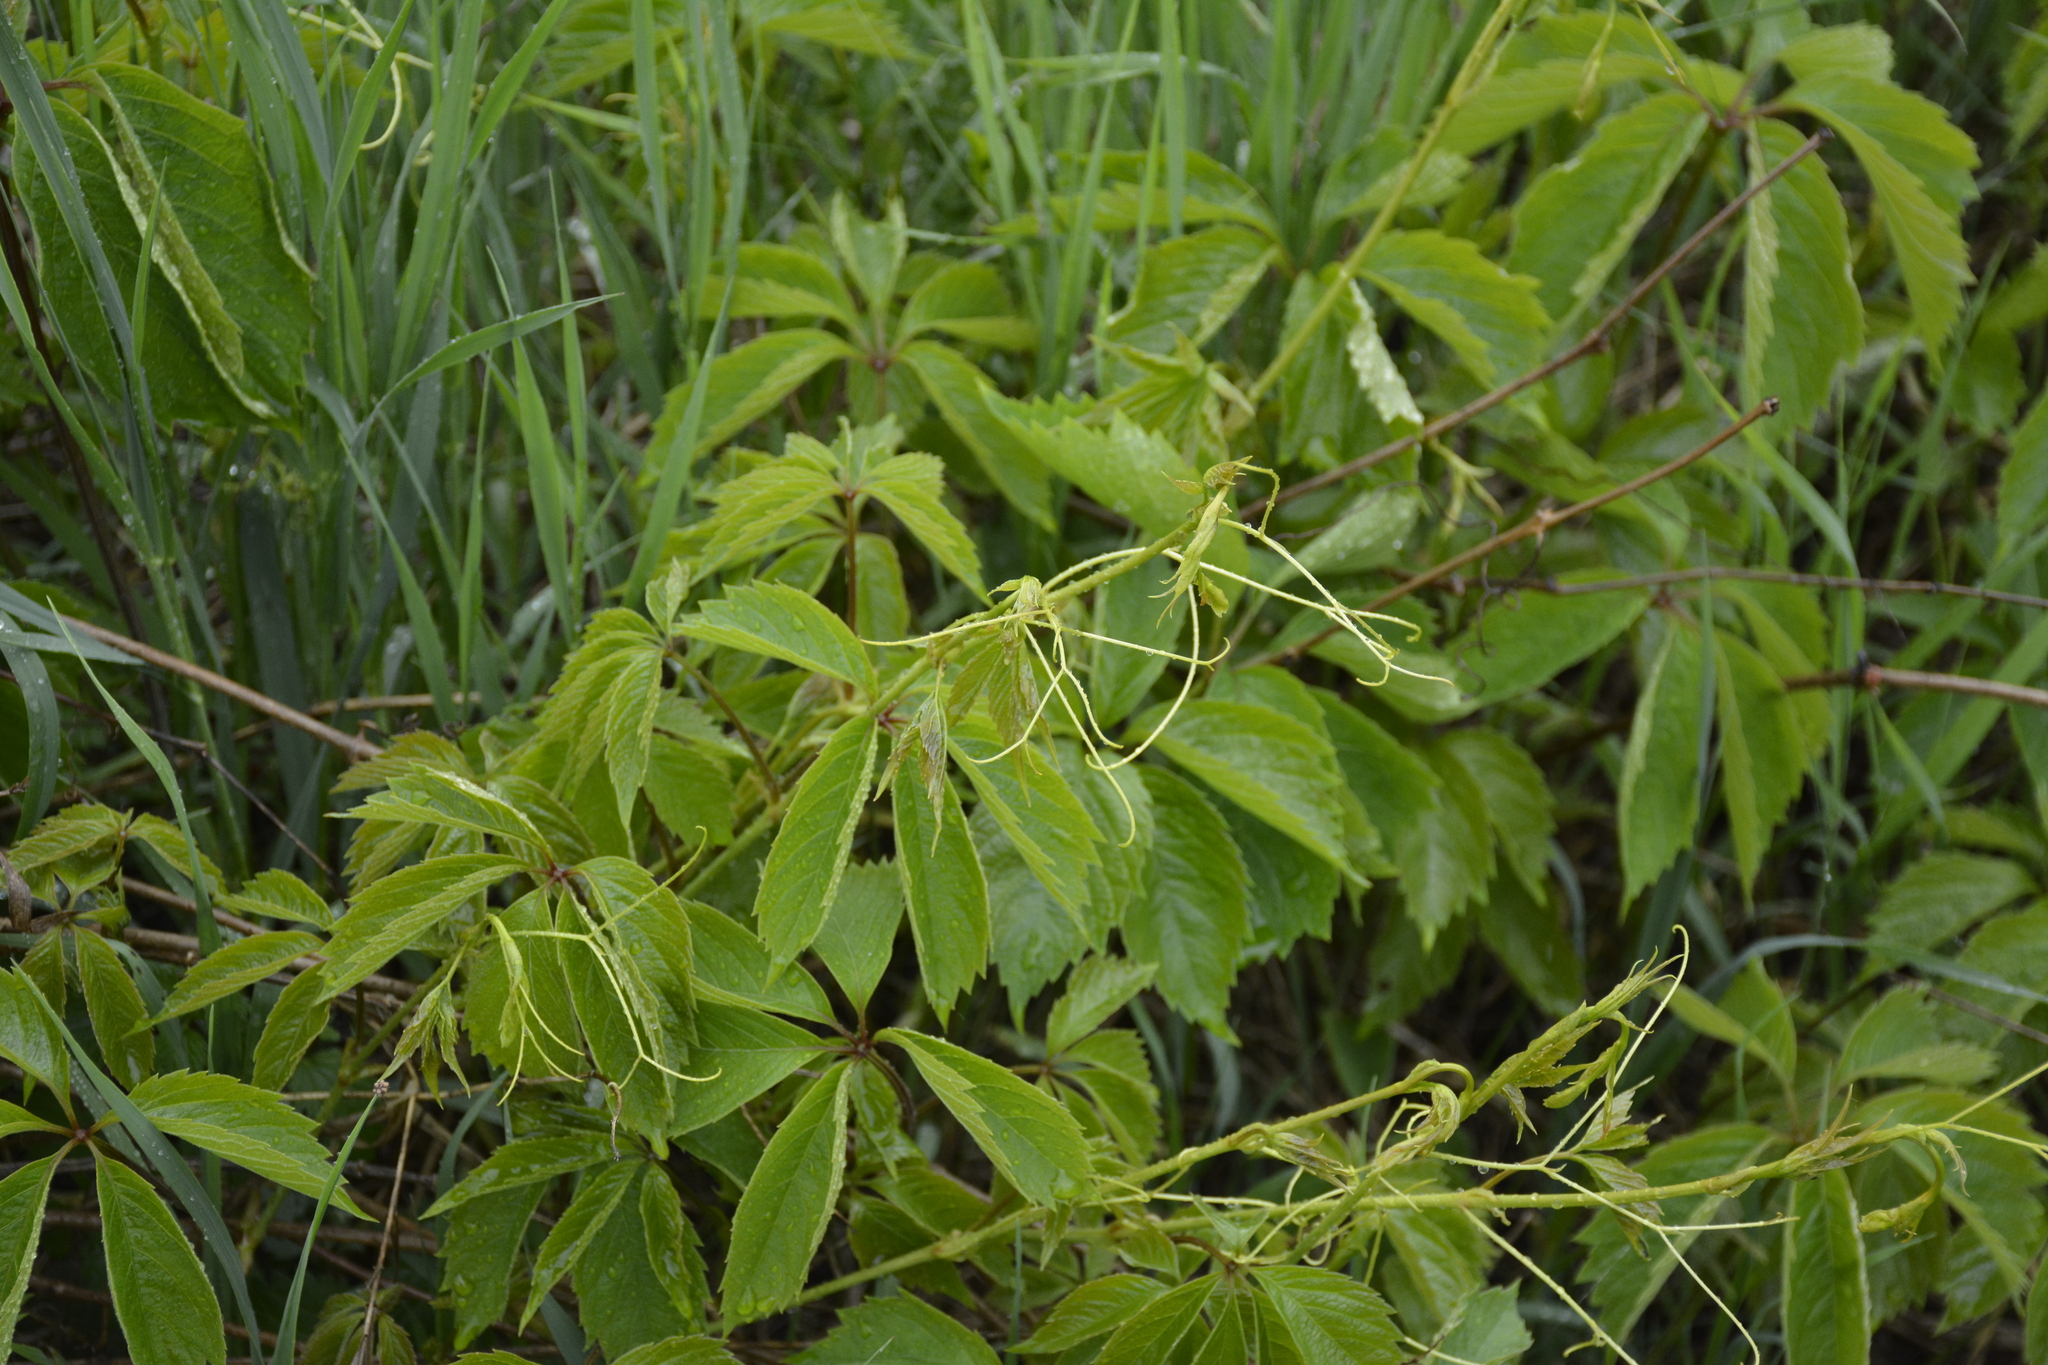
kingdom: Plantae
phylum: Tracheophyta
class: Magnoliopsida
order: Vitales
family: Vitaceae
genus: Parthenocissus
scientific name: Parthenocissus inserta
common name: False virginia-creeper
